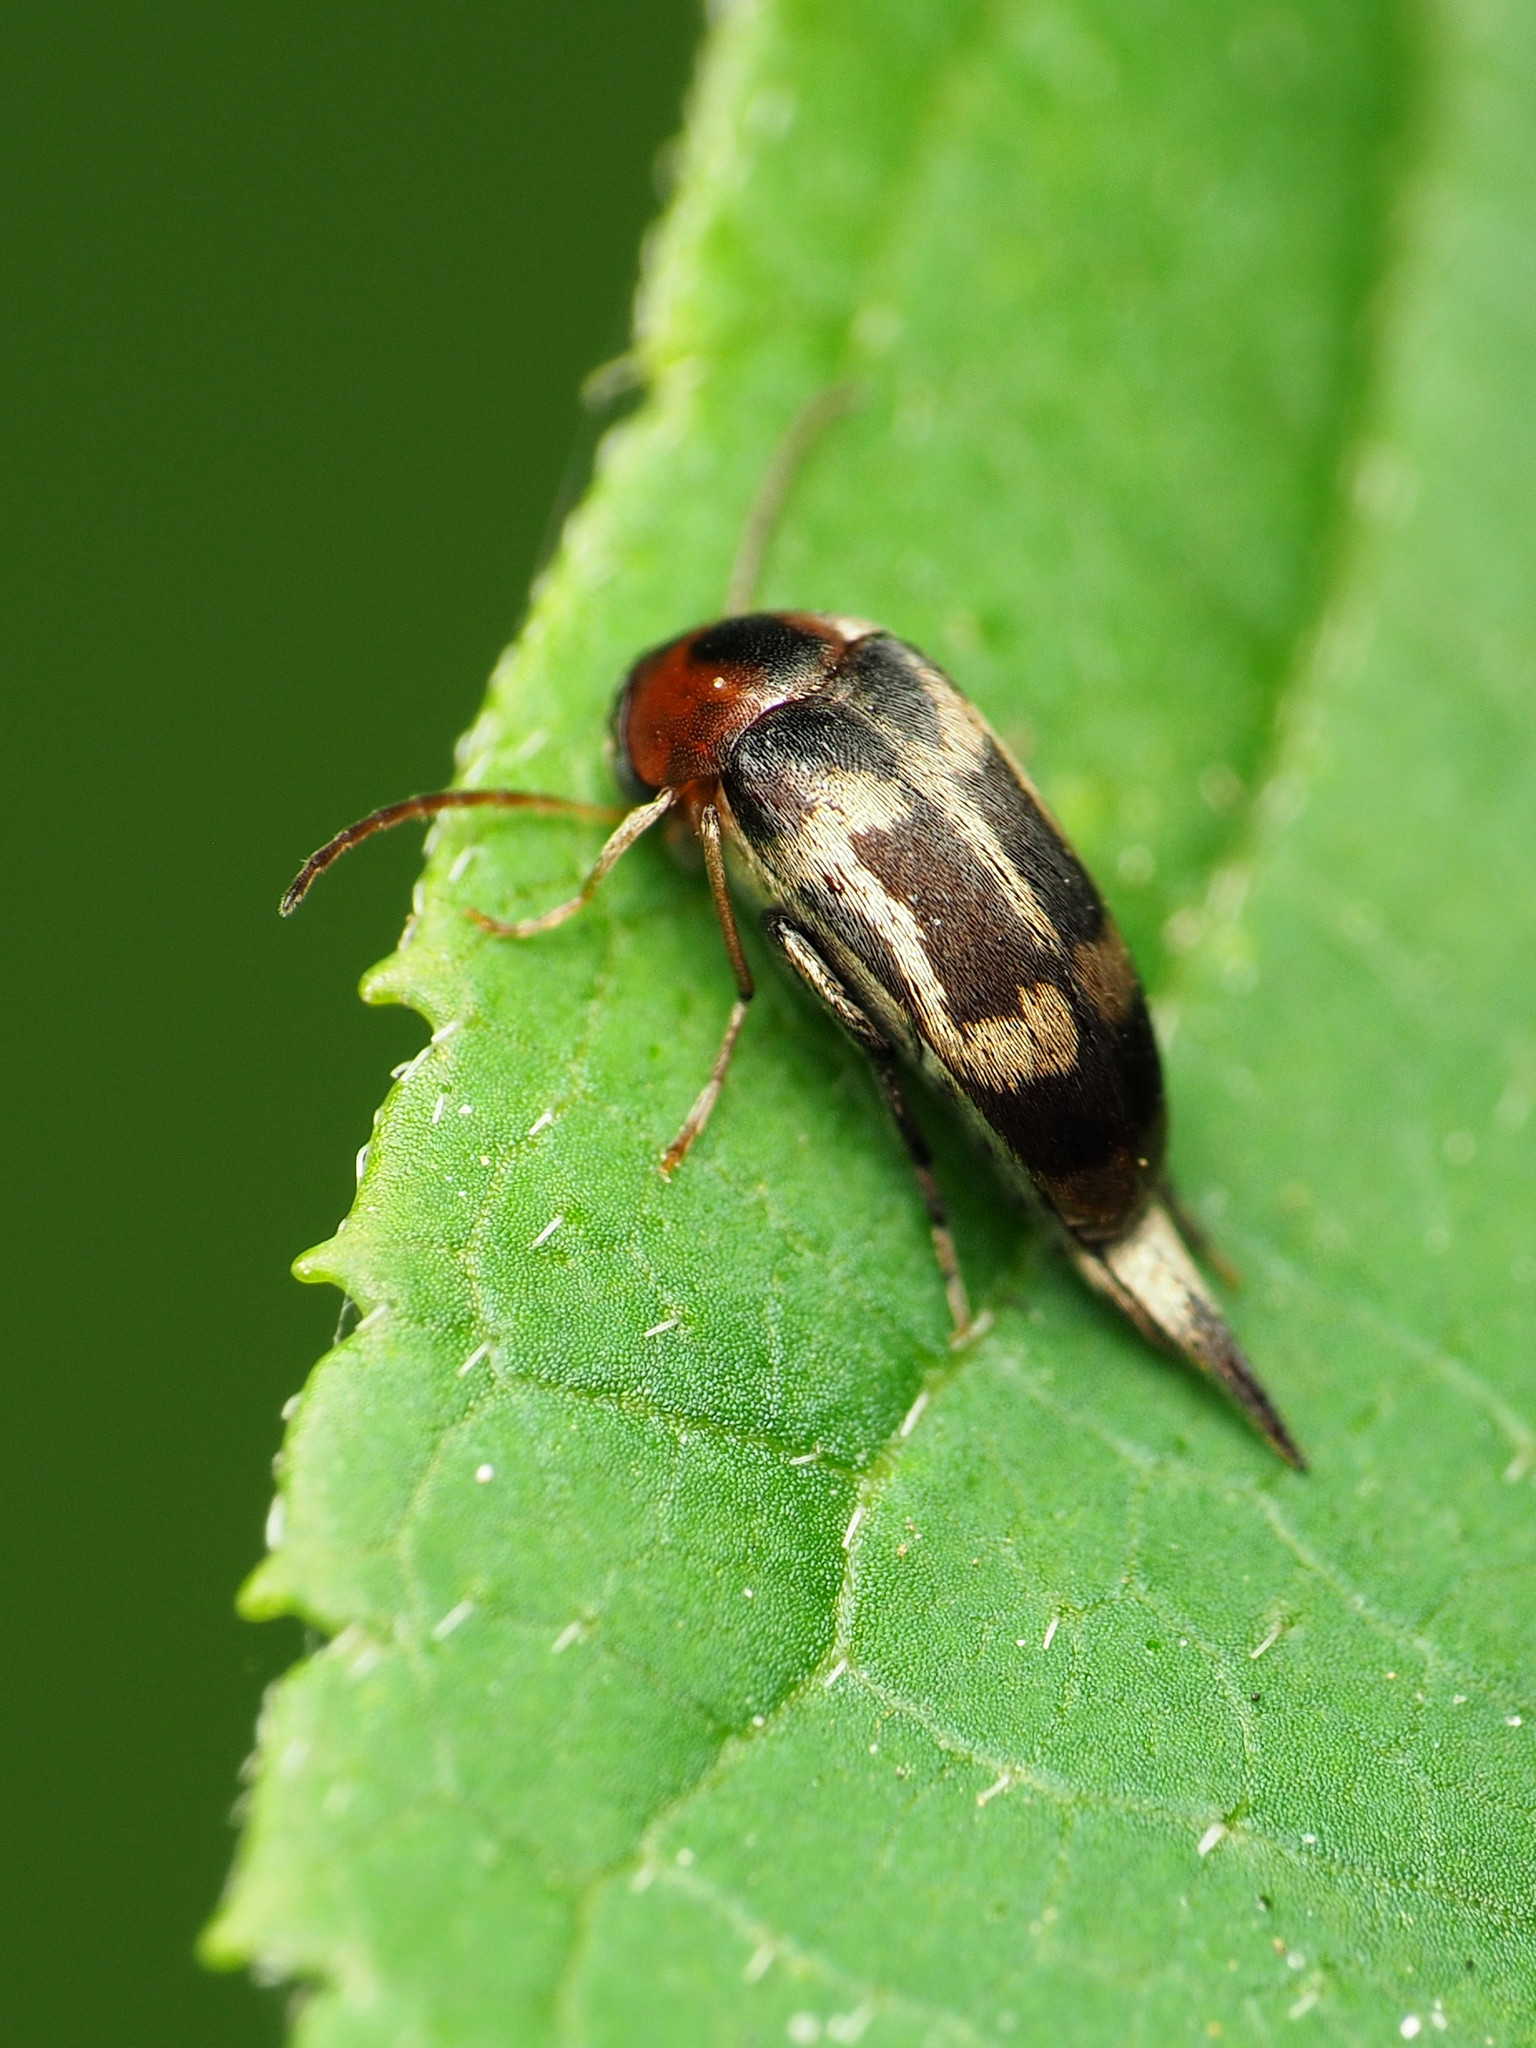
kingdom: Animalia
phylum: Arthropoda
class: Insecta
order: Coleoptera
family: Mordellidae
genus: Falsomordellistena
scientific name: Falsomordellistena hebraica
